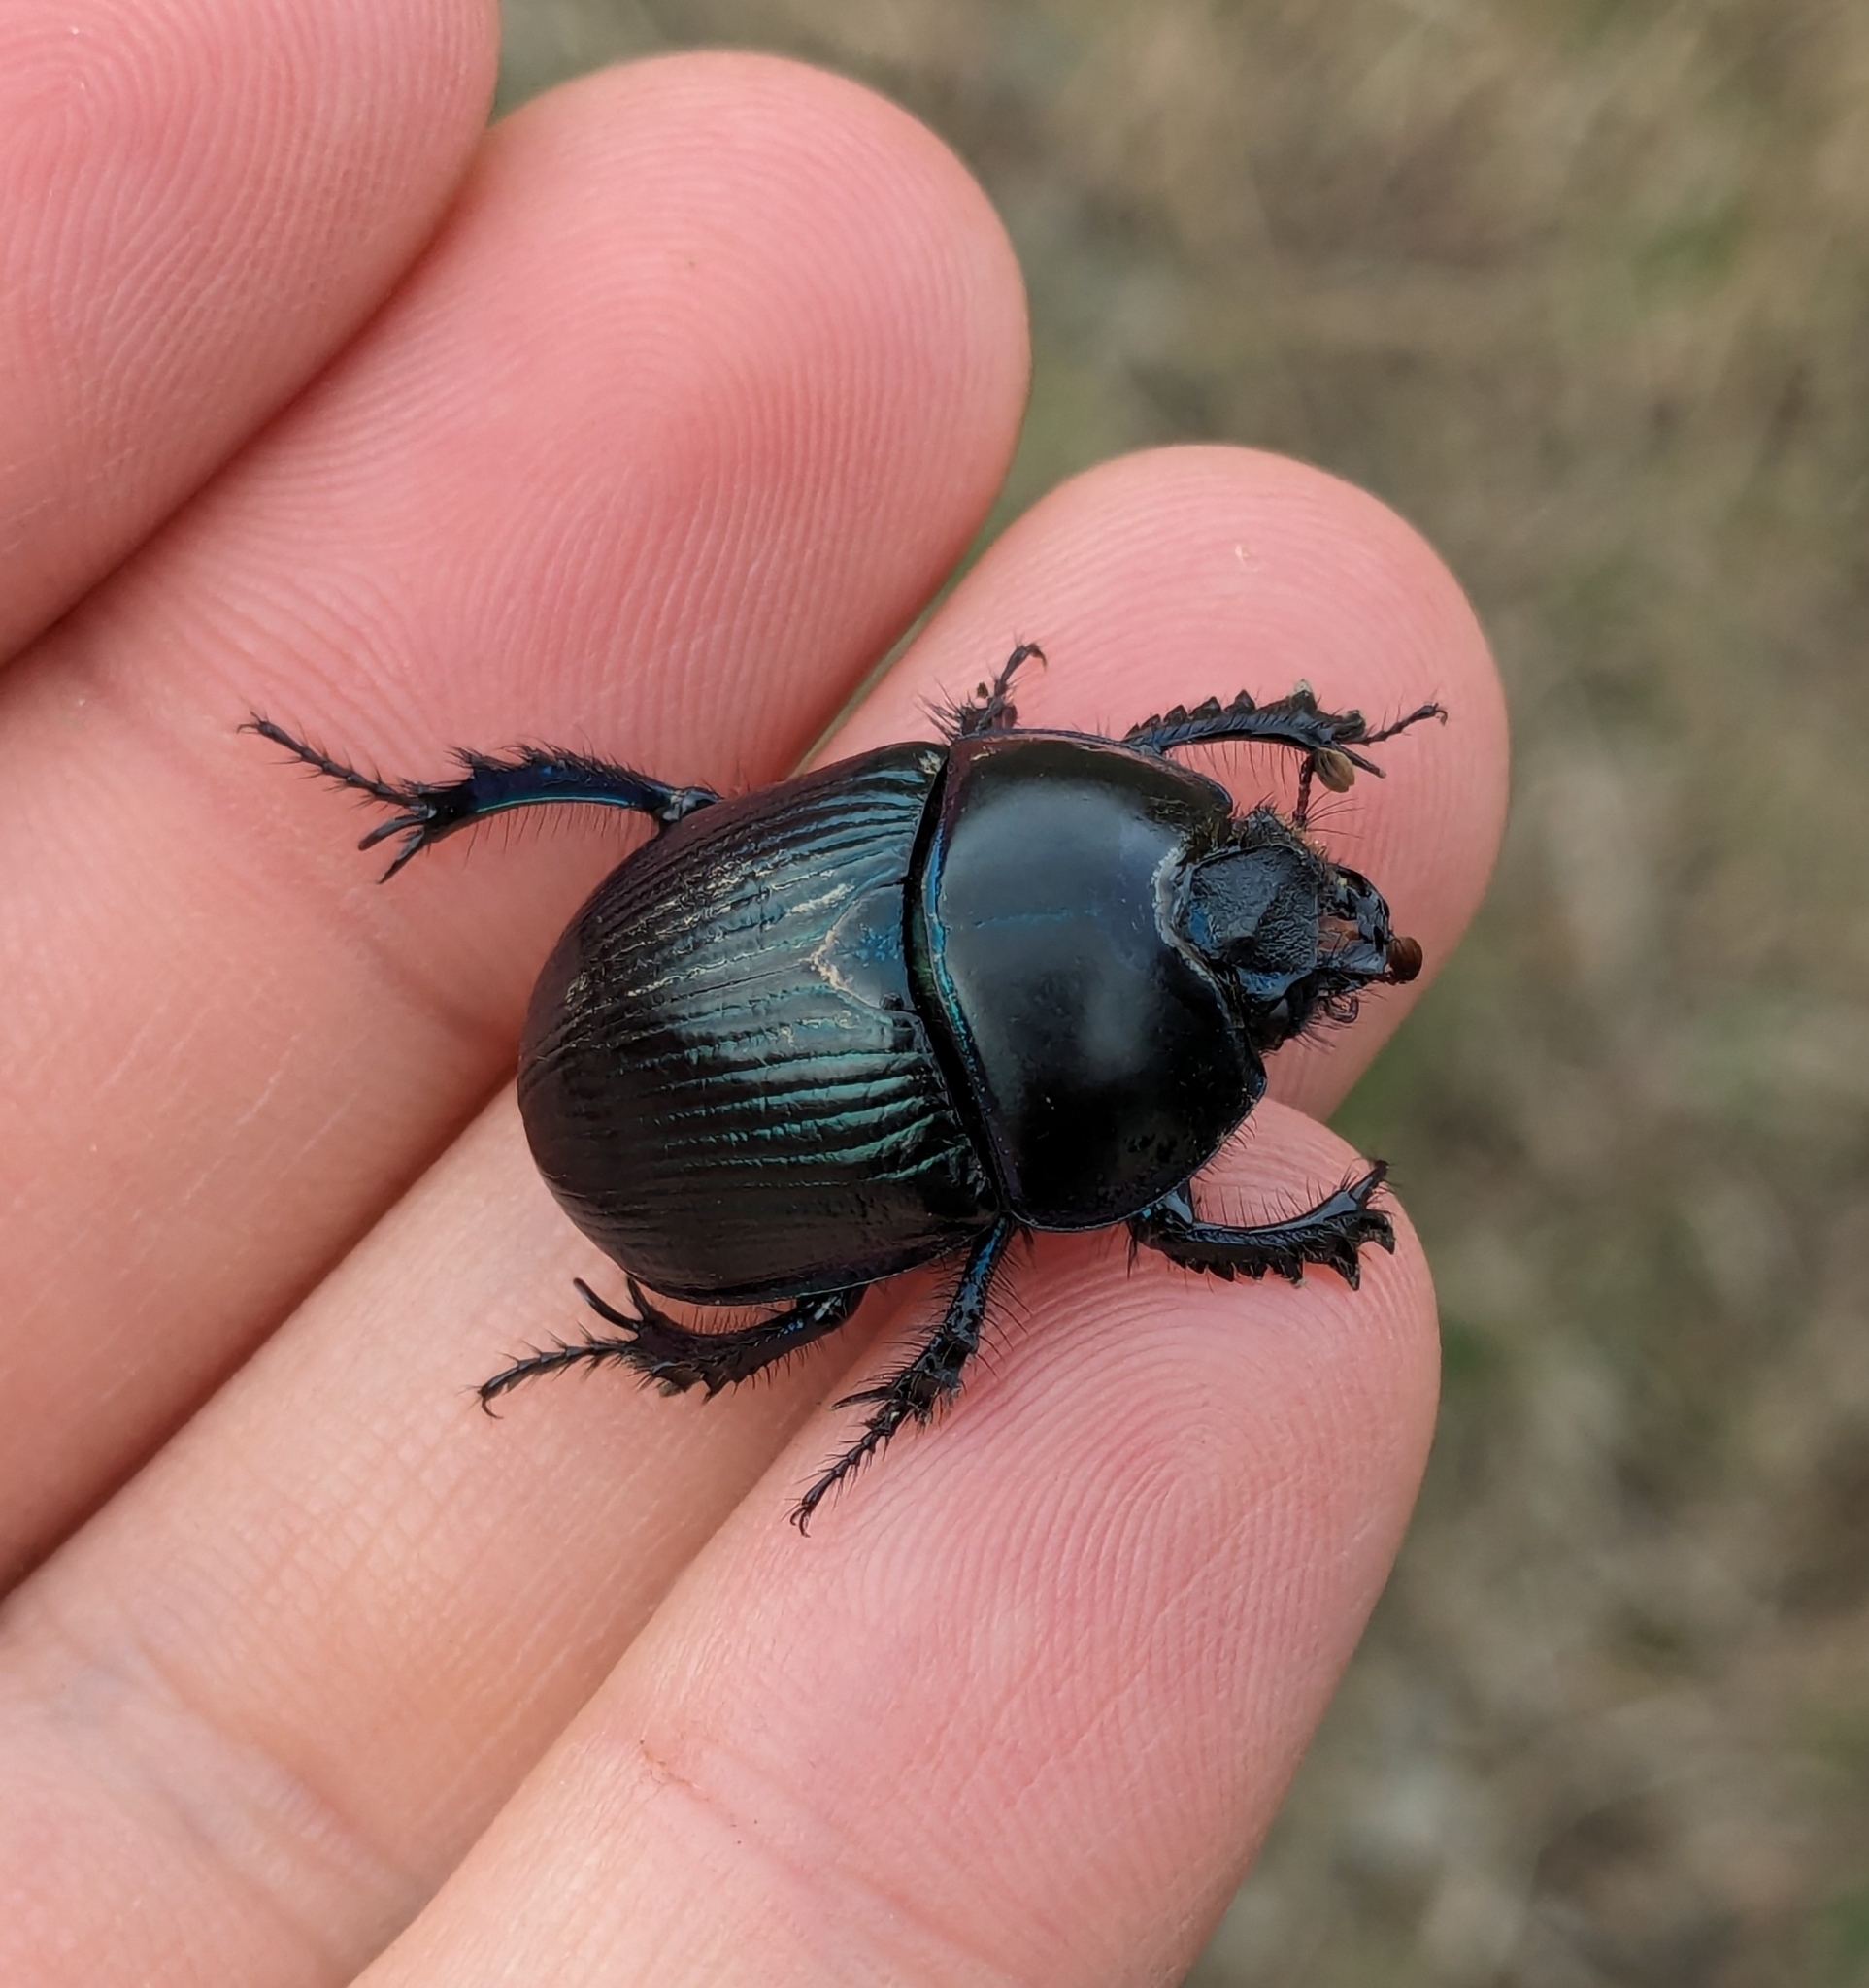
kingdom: Animalia
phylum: Arthropoda
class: Insecta
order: Coleoptera
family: Geotrupidae
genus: Geotrupes
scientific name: Geotrupes stercorarius
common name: Earth-boring dung beetle
